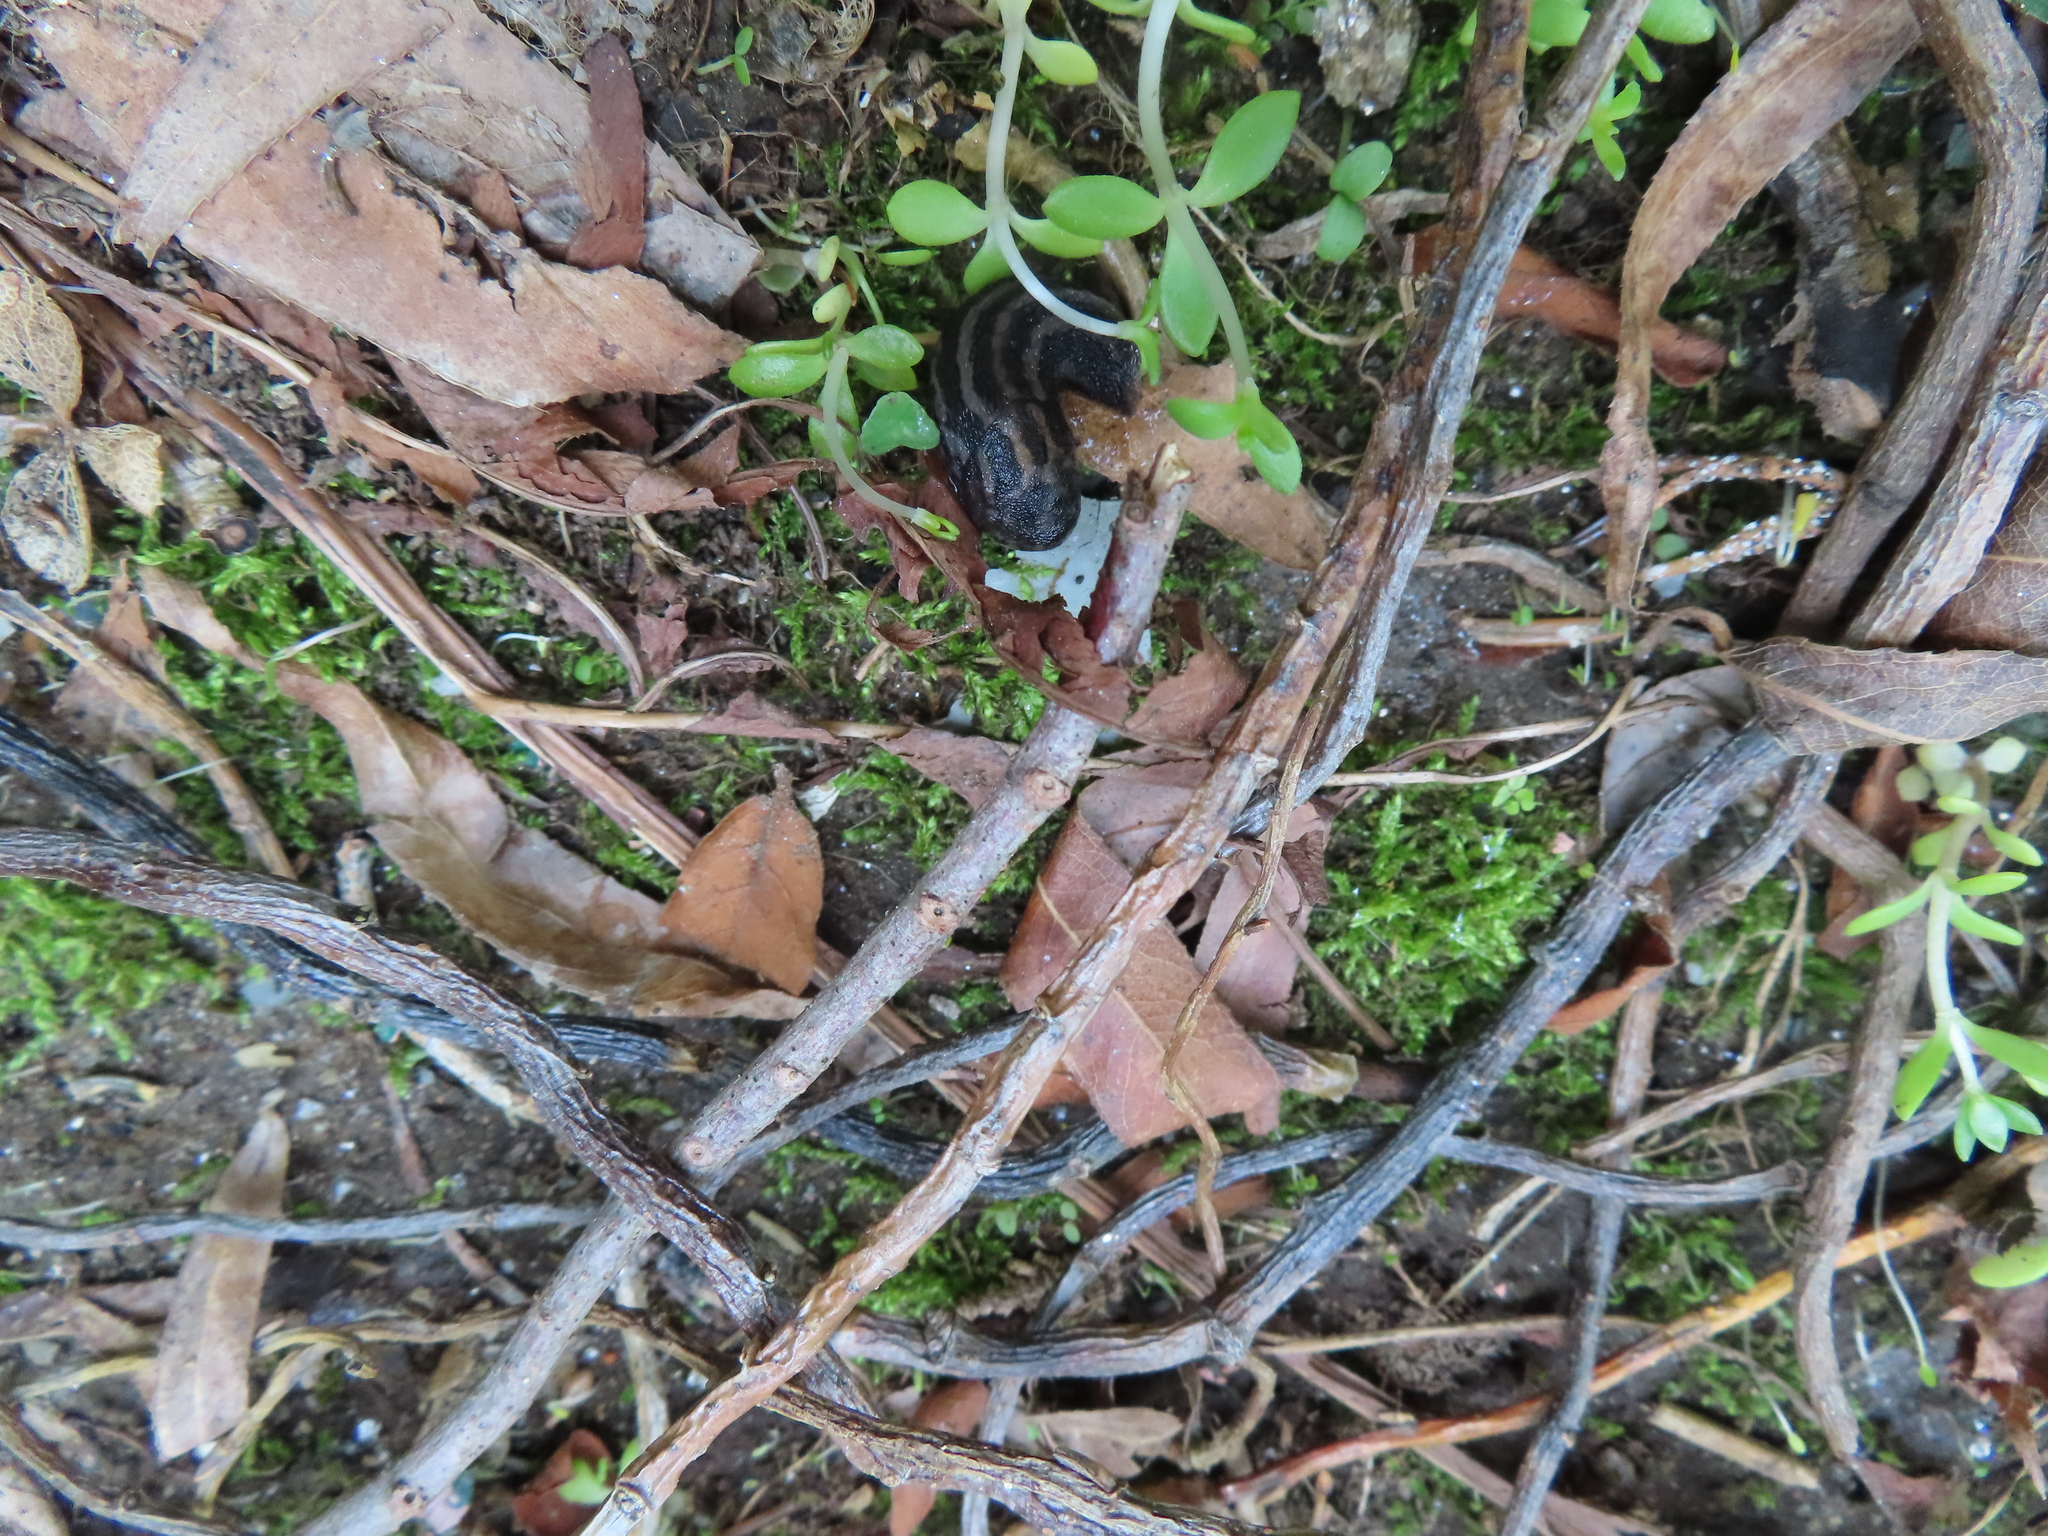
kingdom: Animalia
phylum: Mollusca
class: Gastropoda
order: Stylommatophora
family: Limacidae
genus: Limax
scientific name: Limax maximus
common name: Great grey slug
